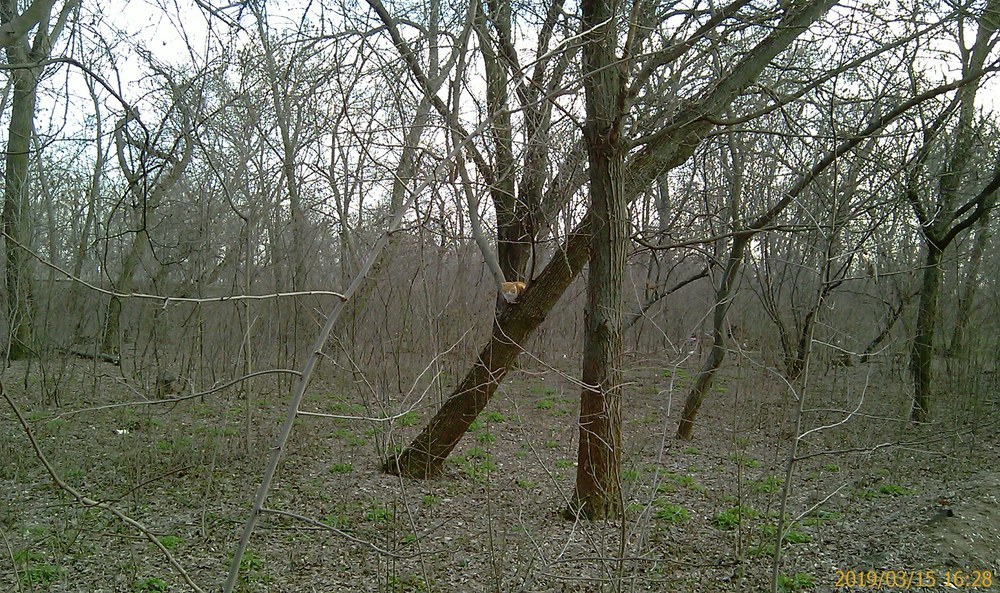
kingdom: Animalia
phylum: Chordata
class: Mammalia
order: Carnivora
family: Felidae
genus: Felis
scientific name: Felis catus
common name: Domestic cat
